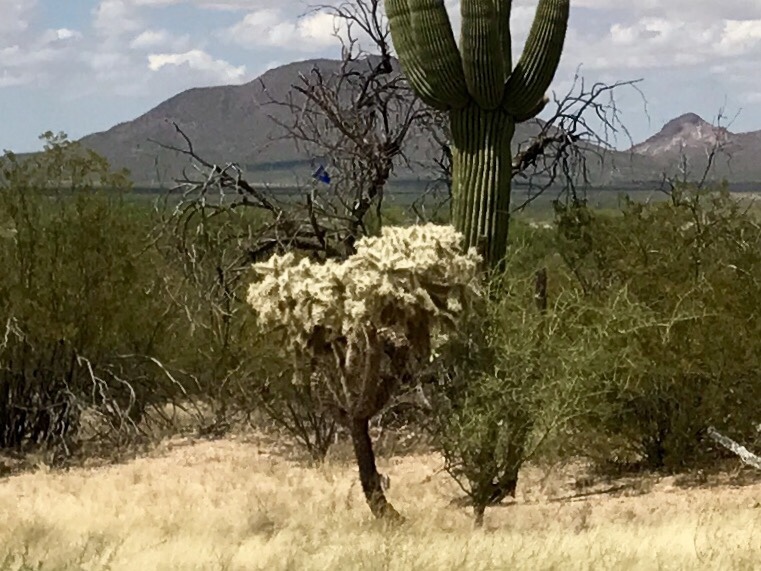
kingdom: Plantae
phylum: Tracheophyta
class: Magnoliopsida
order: Caryophyllales
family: Cactaceae
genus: Cylindropuntia
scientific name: Cylindropuntia fulgida
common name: Jumping cholla
